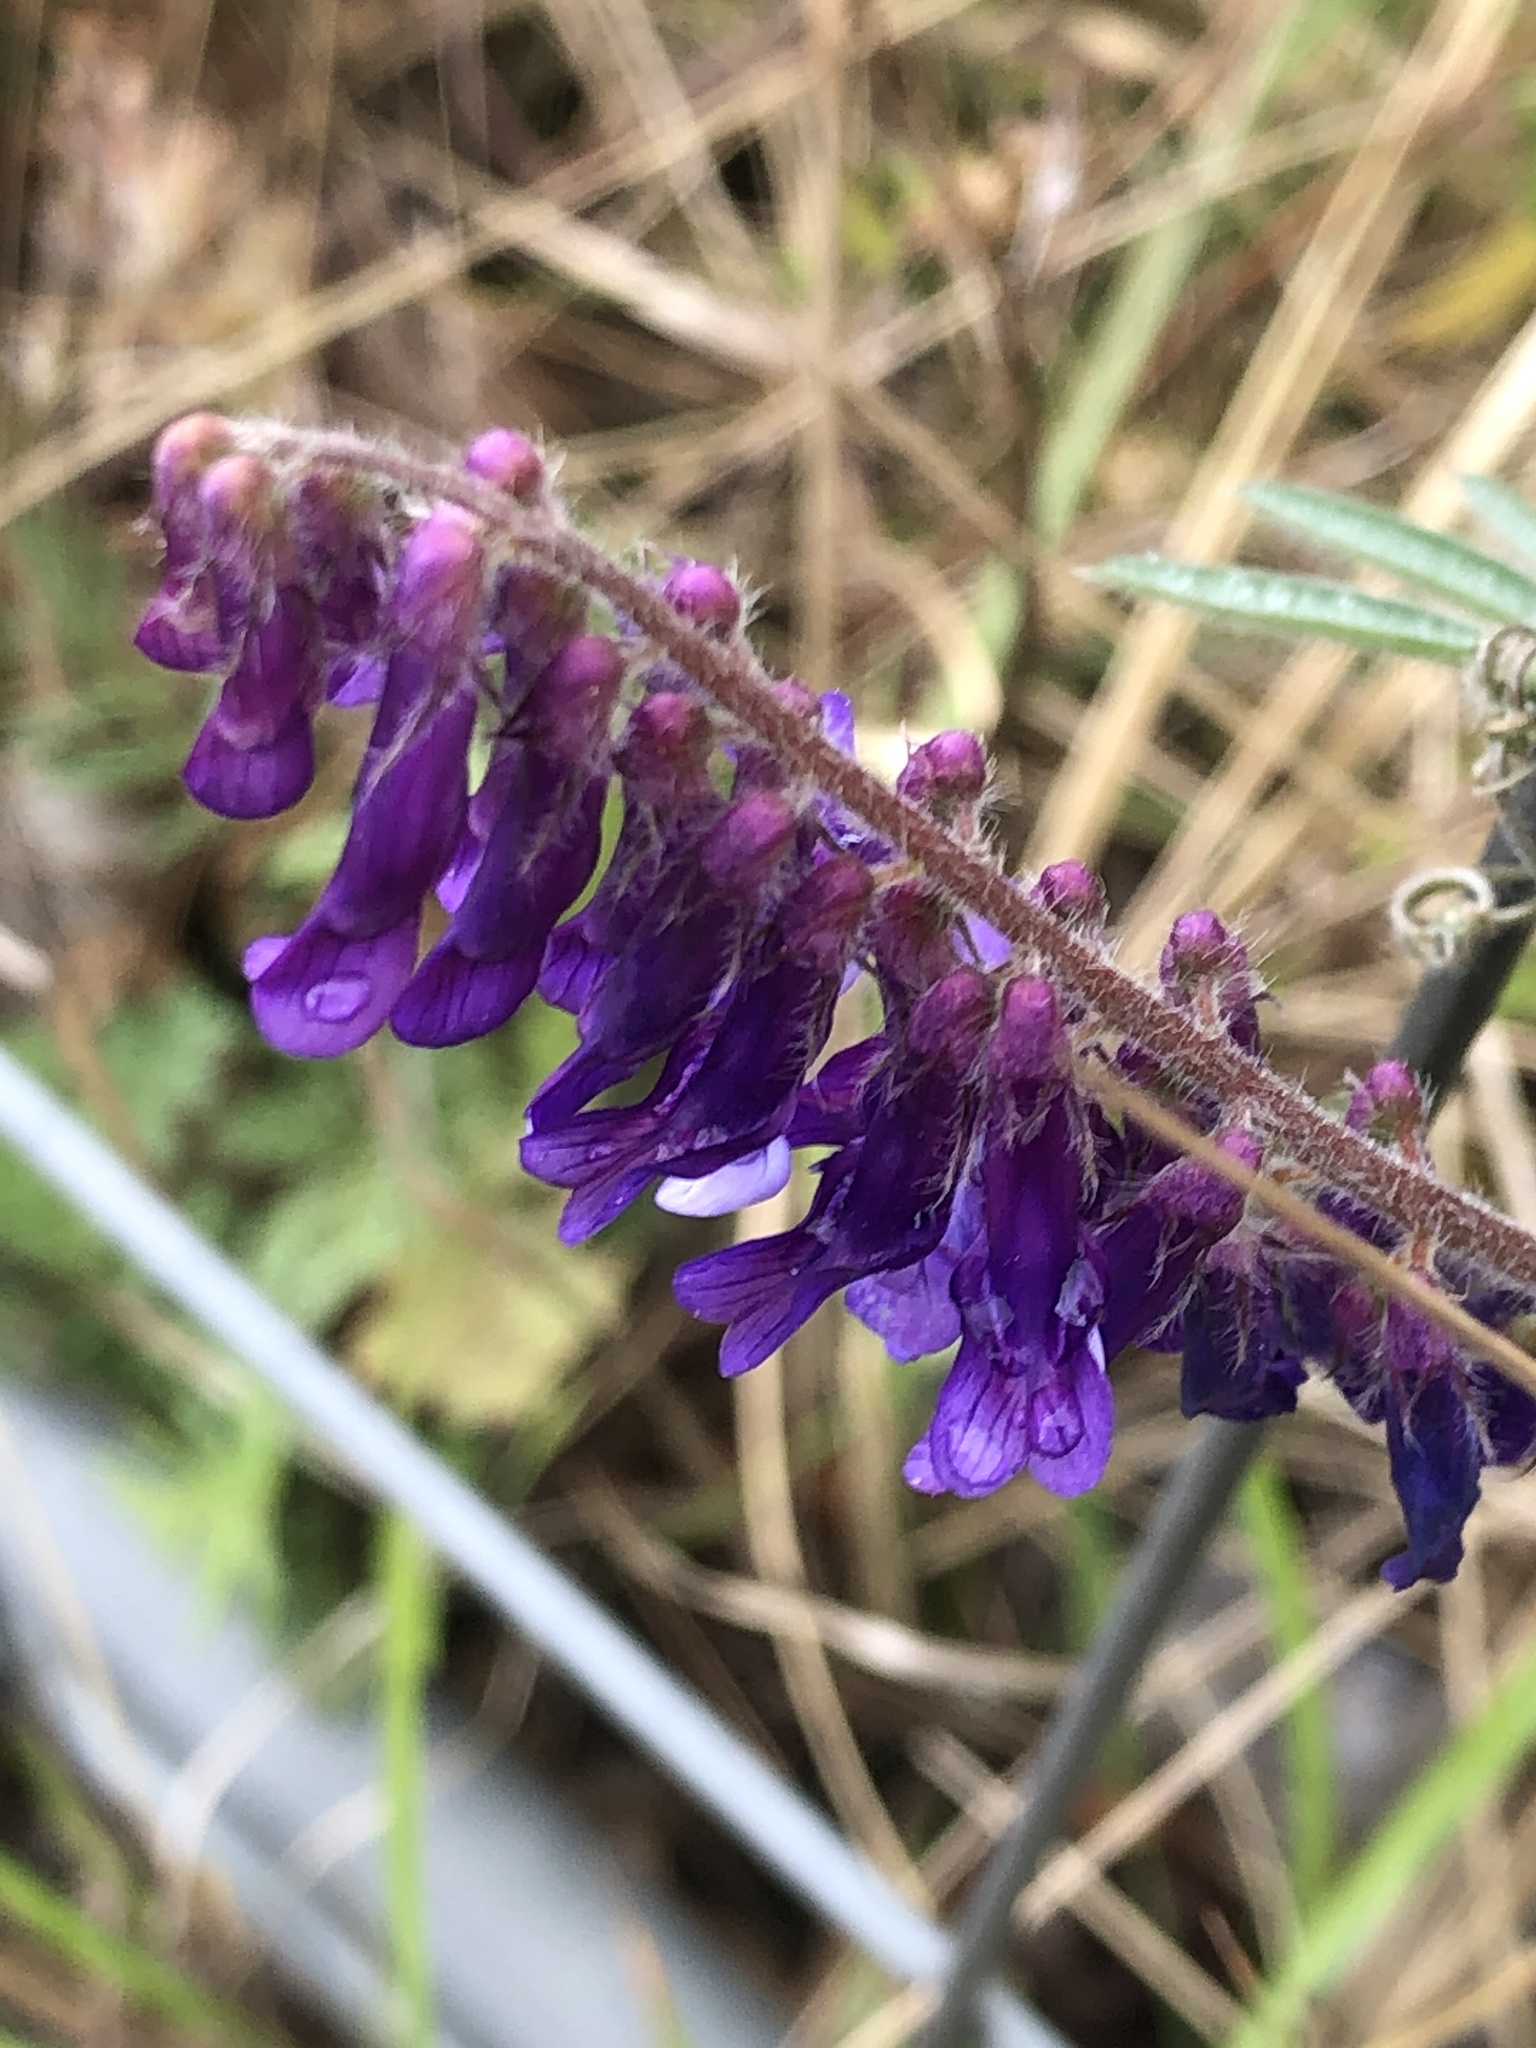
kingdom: Plantae
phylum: Tracheophyta
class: Magnoliopsida
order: Fabales
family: Fabaceae
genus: Vicia
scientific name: Vicia villosa
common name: Fodder vetch
